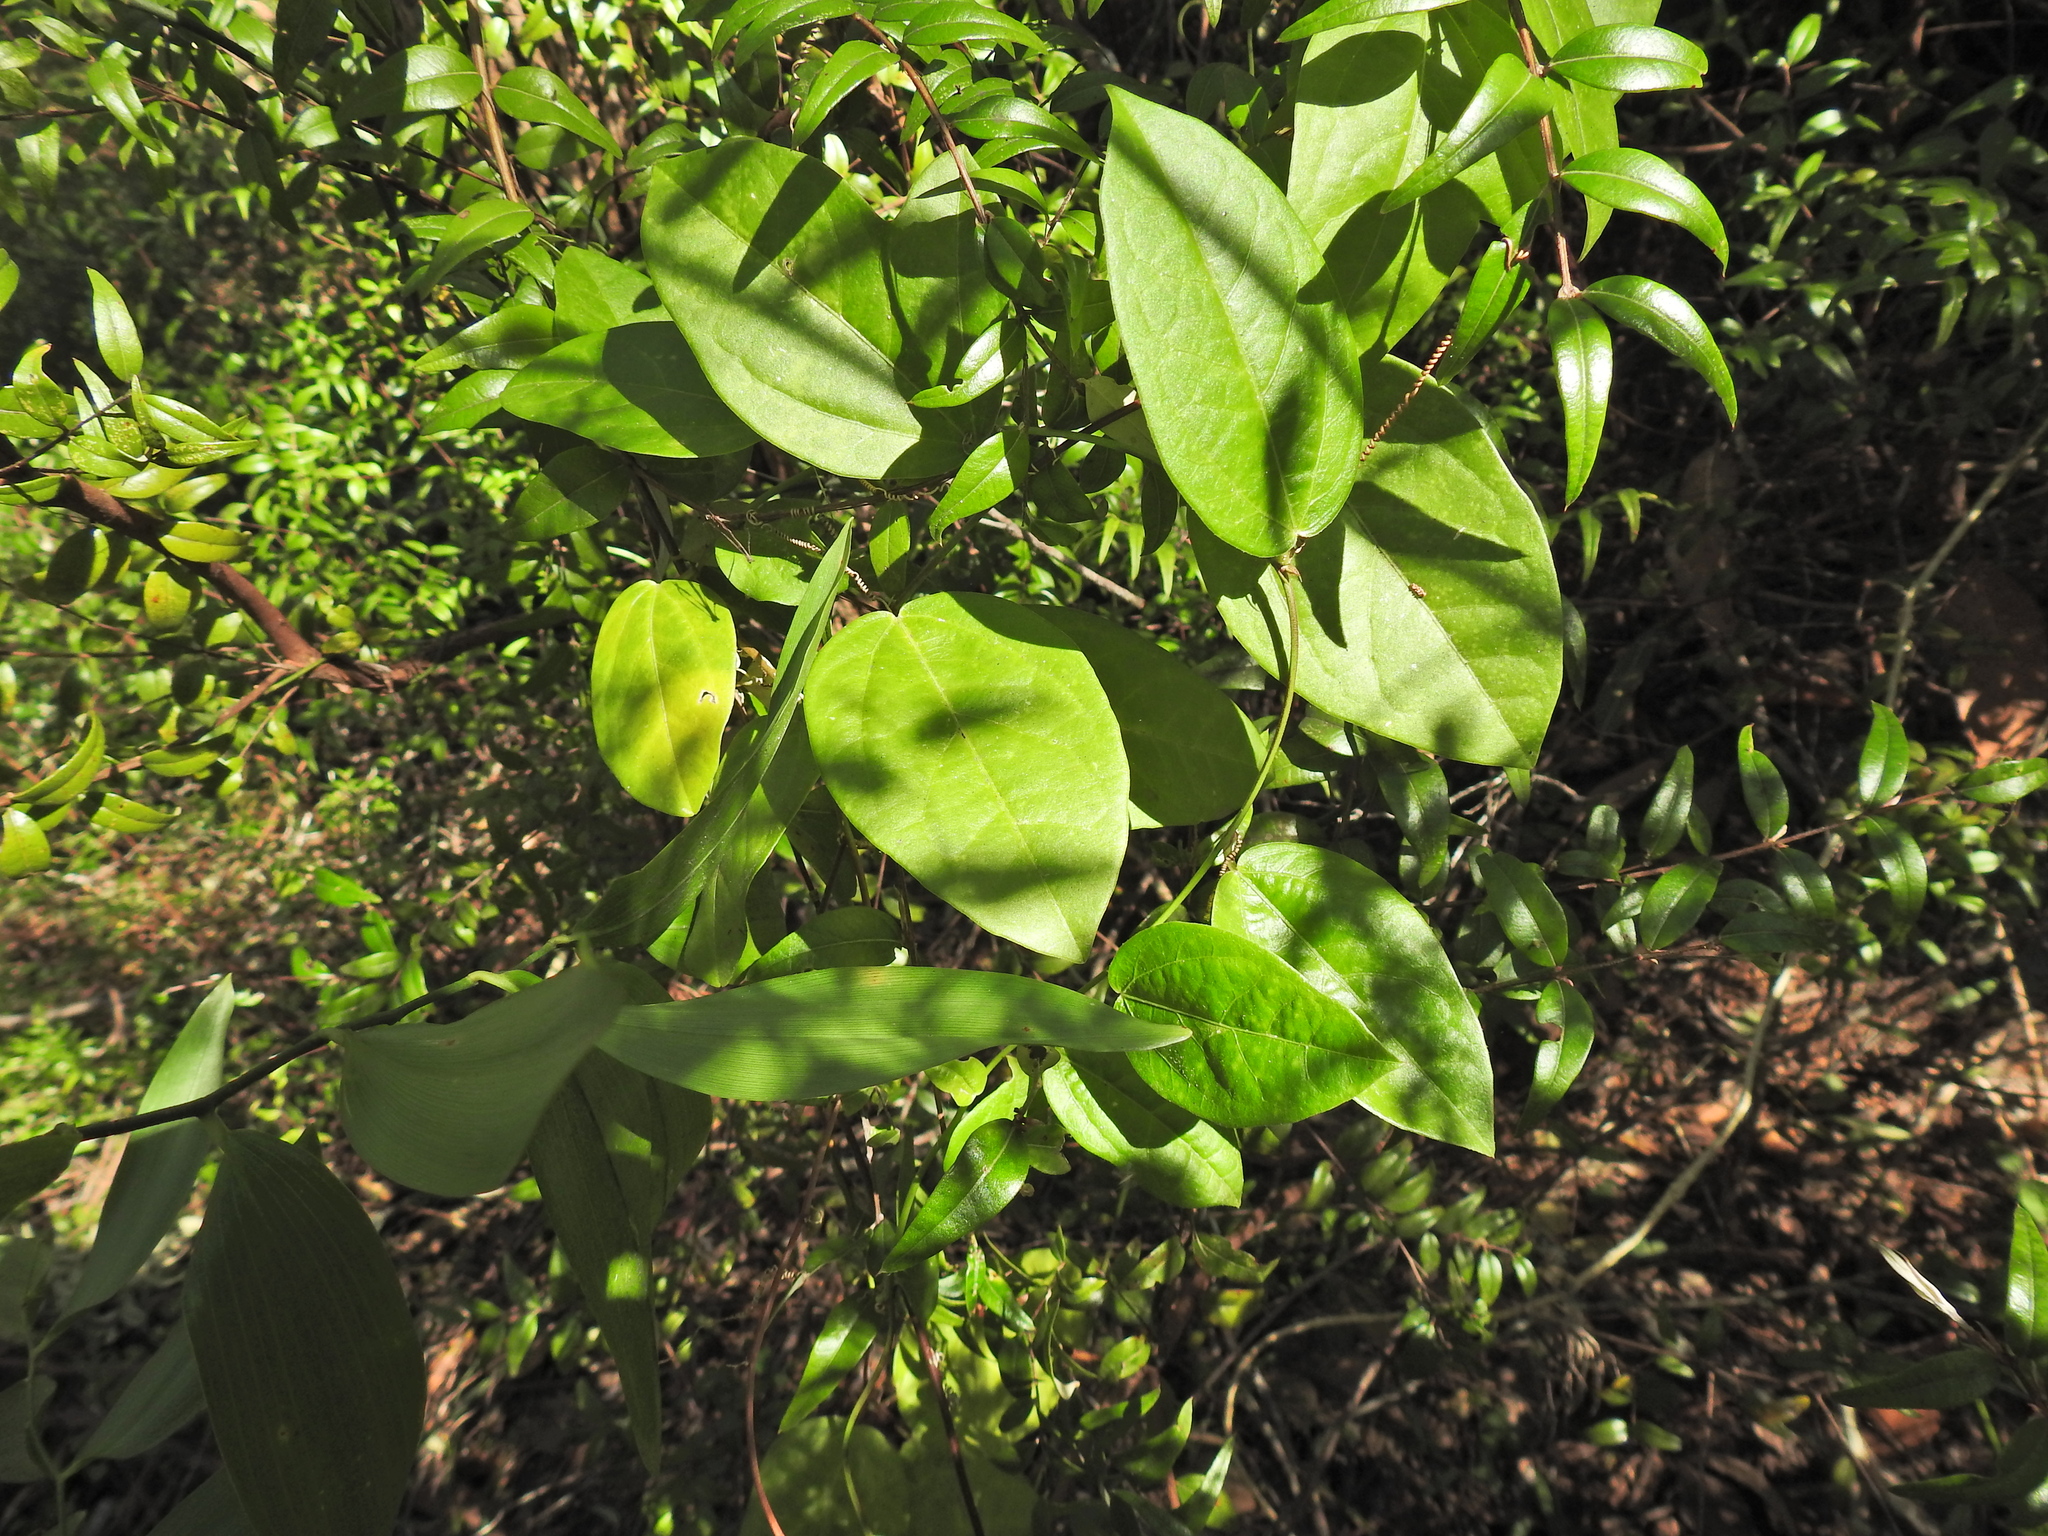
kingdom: Plantae
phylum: Tracheophyta
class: Magnoliopsida
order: Malpighiales
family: Passifloraceae
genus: Passiflora
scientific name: Passiflora pallida
